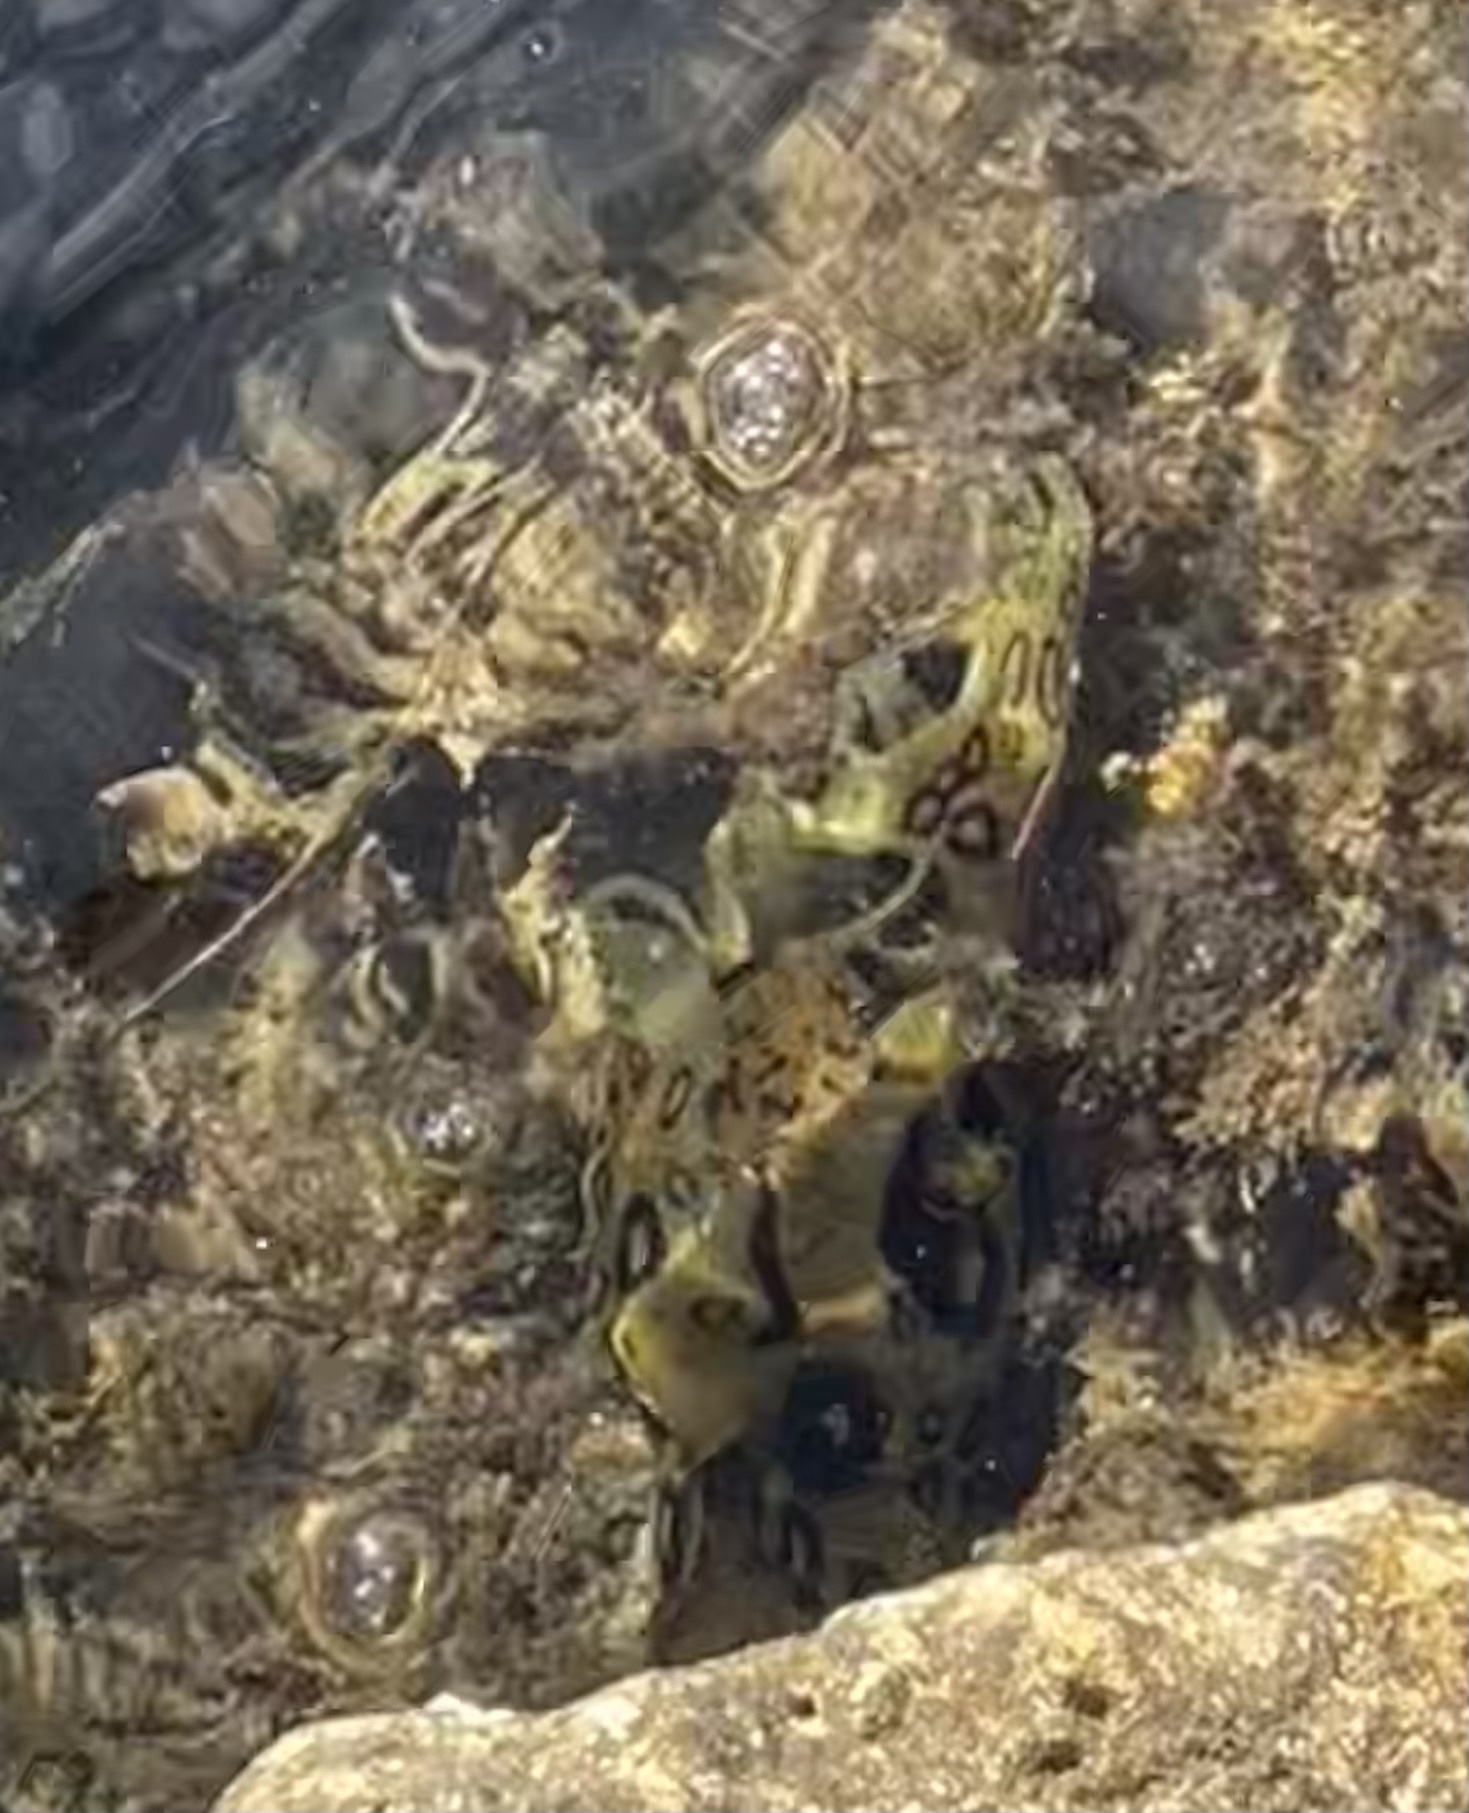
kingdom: Animalia
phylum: Mollusca
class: Gastropoda
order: Aplysiida
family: Aplysiidae
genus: Aplysia
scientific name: Aplysia dactylomela
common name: Large-spotted sea hare
